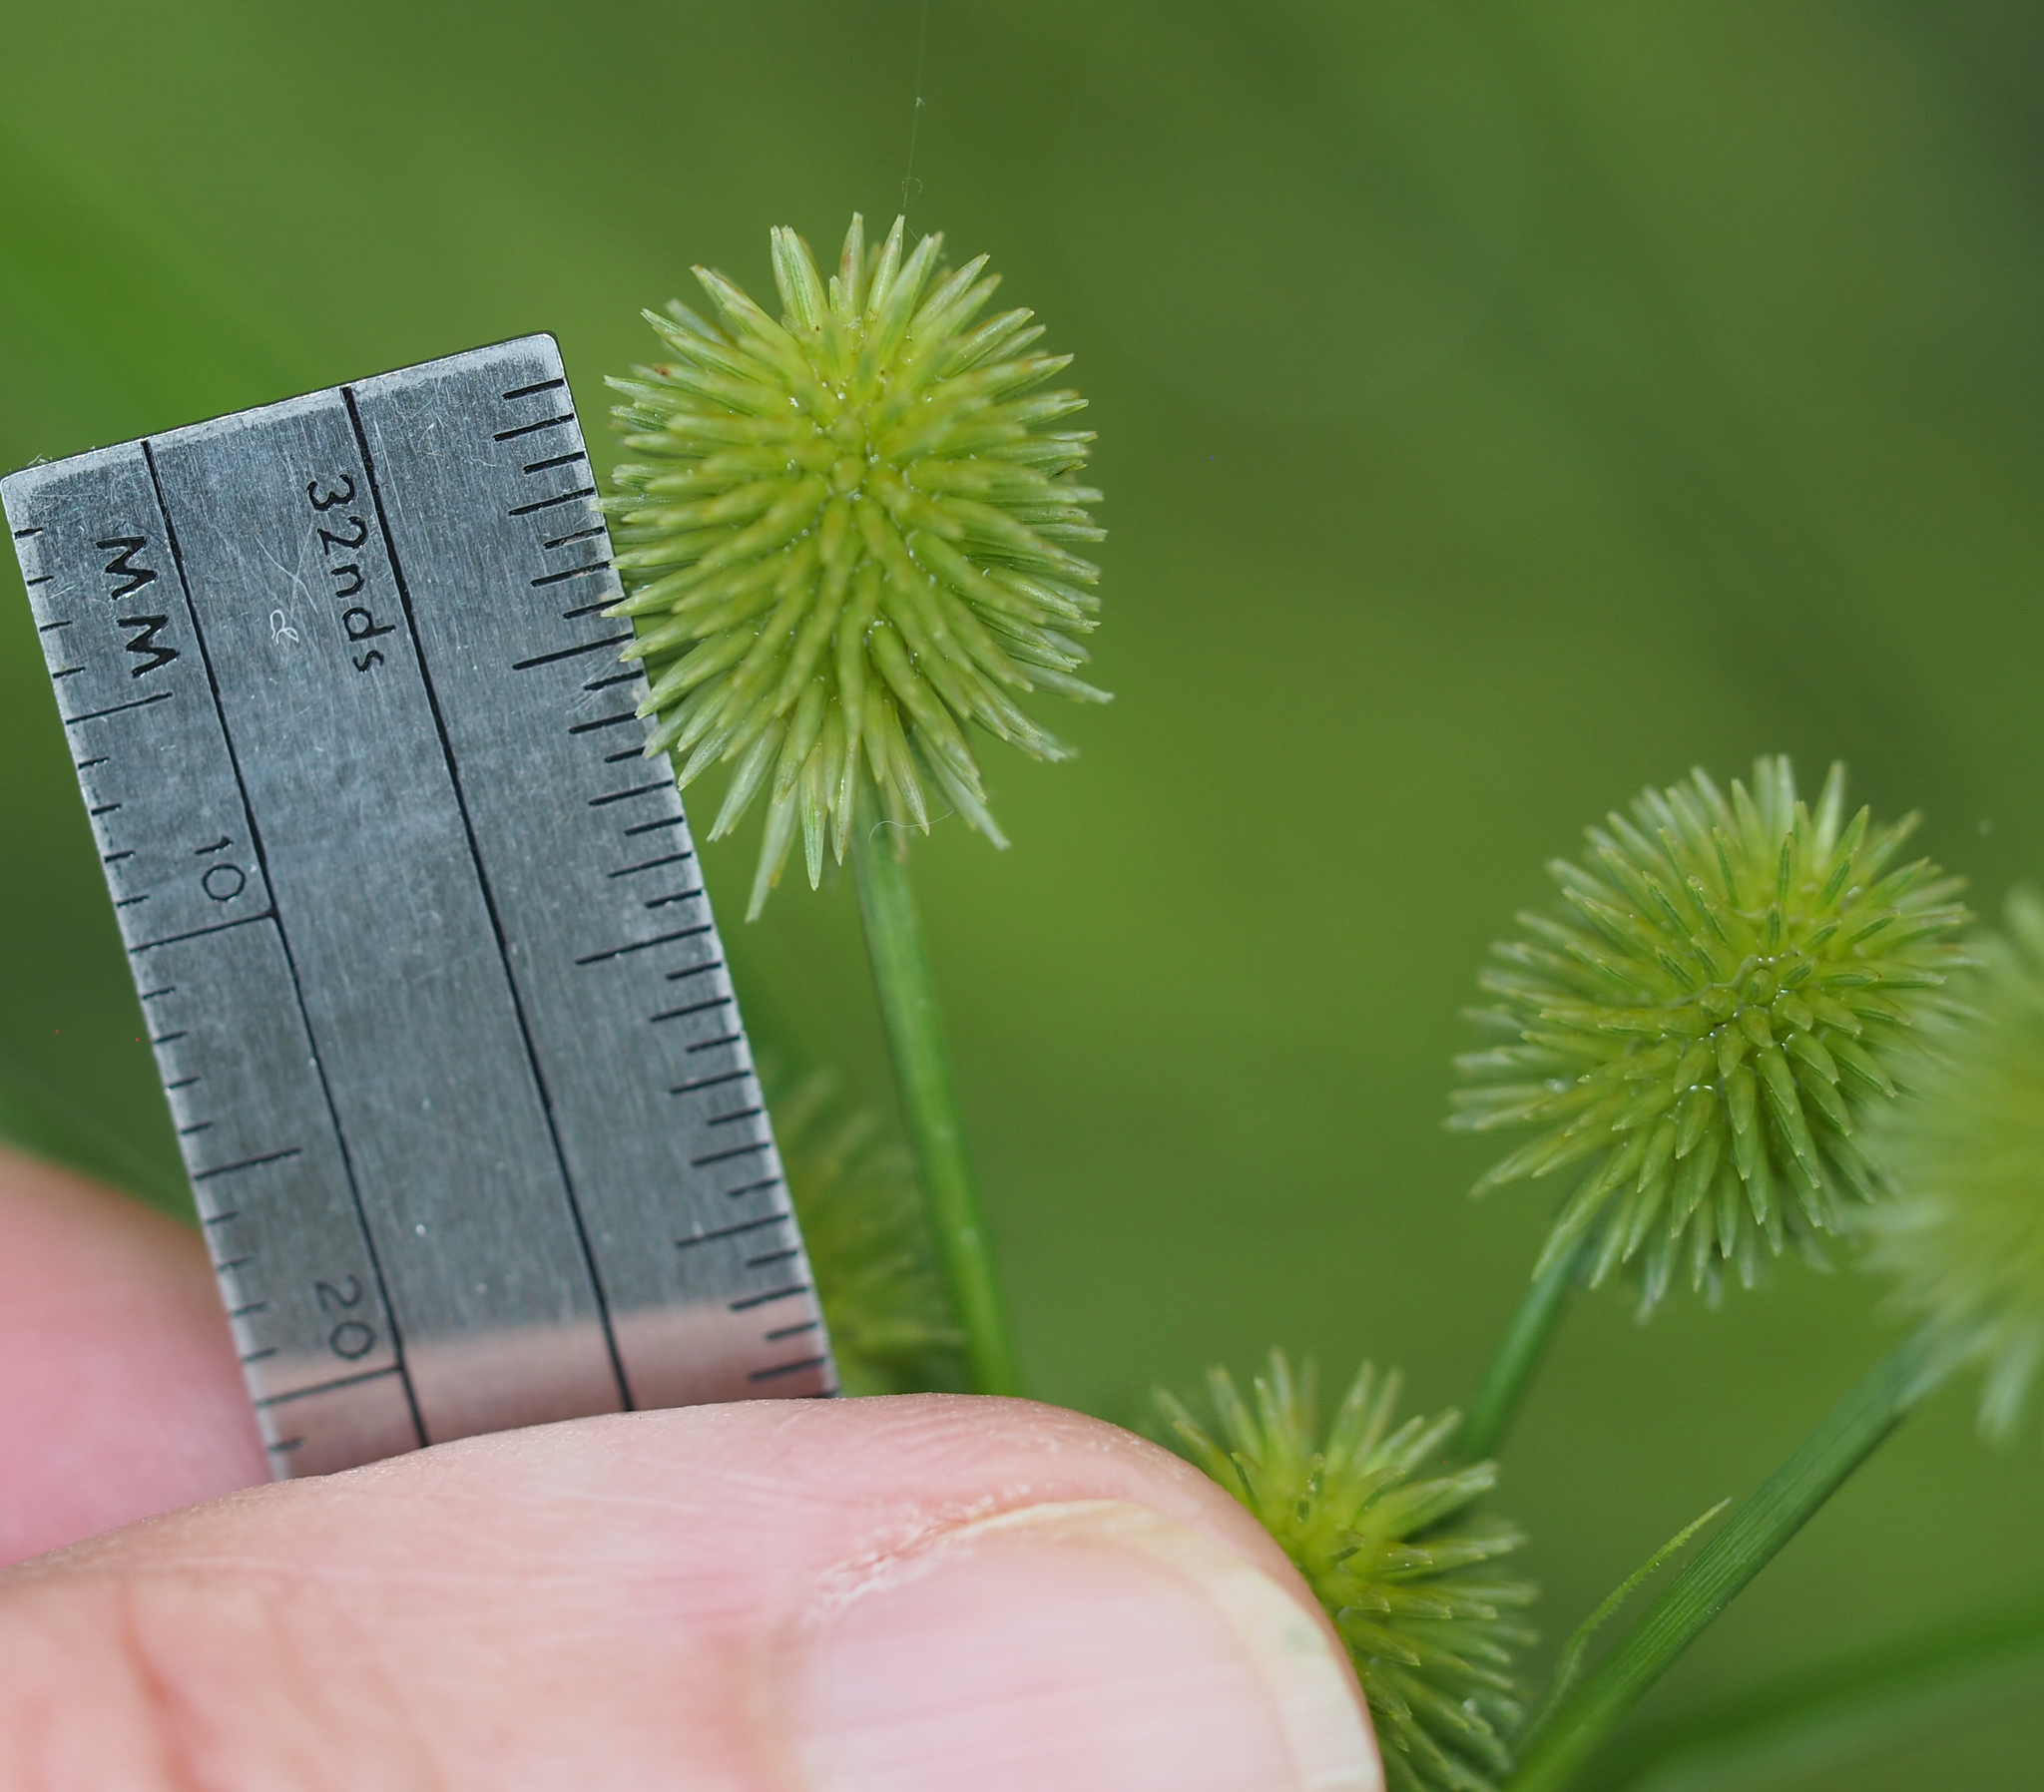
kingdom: Plantae
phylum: Tracheophyta
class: Liliopsida
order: Poales
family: Cyperaceae
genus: Cyperus
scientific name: Cyperus echinatus
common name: Teasel sedge
